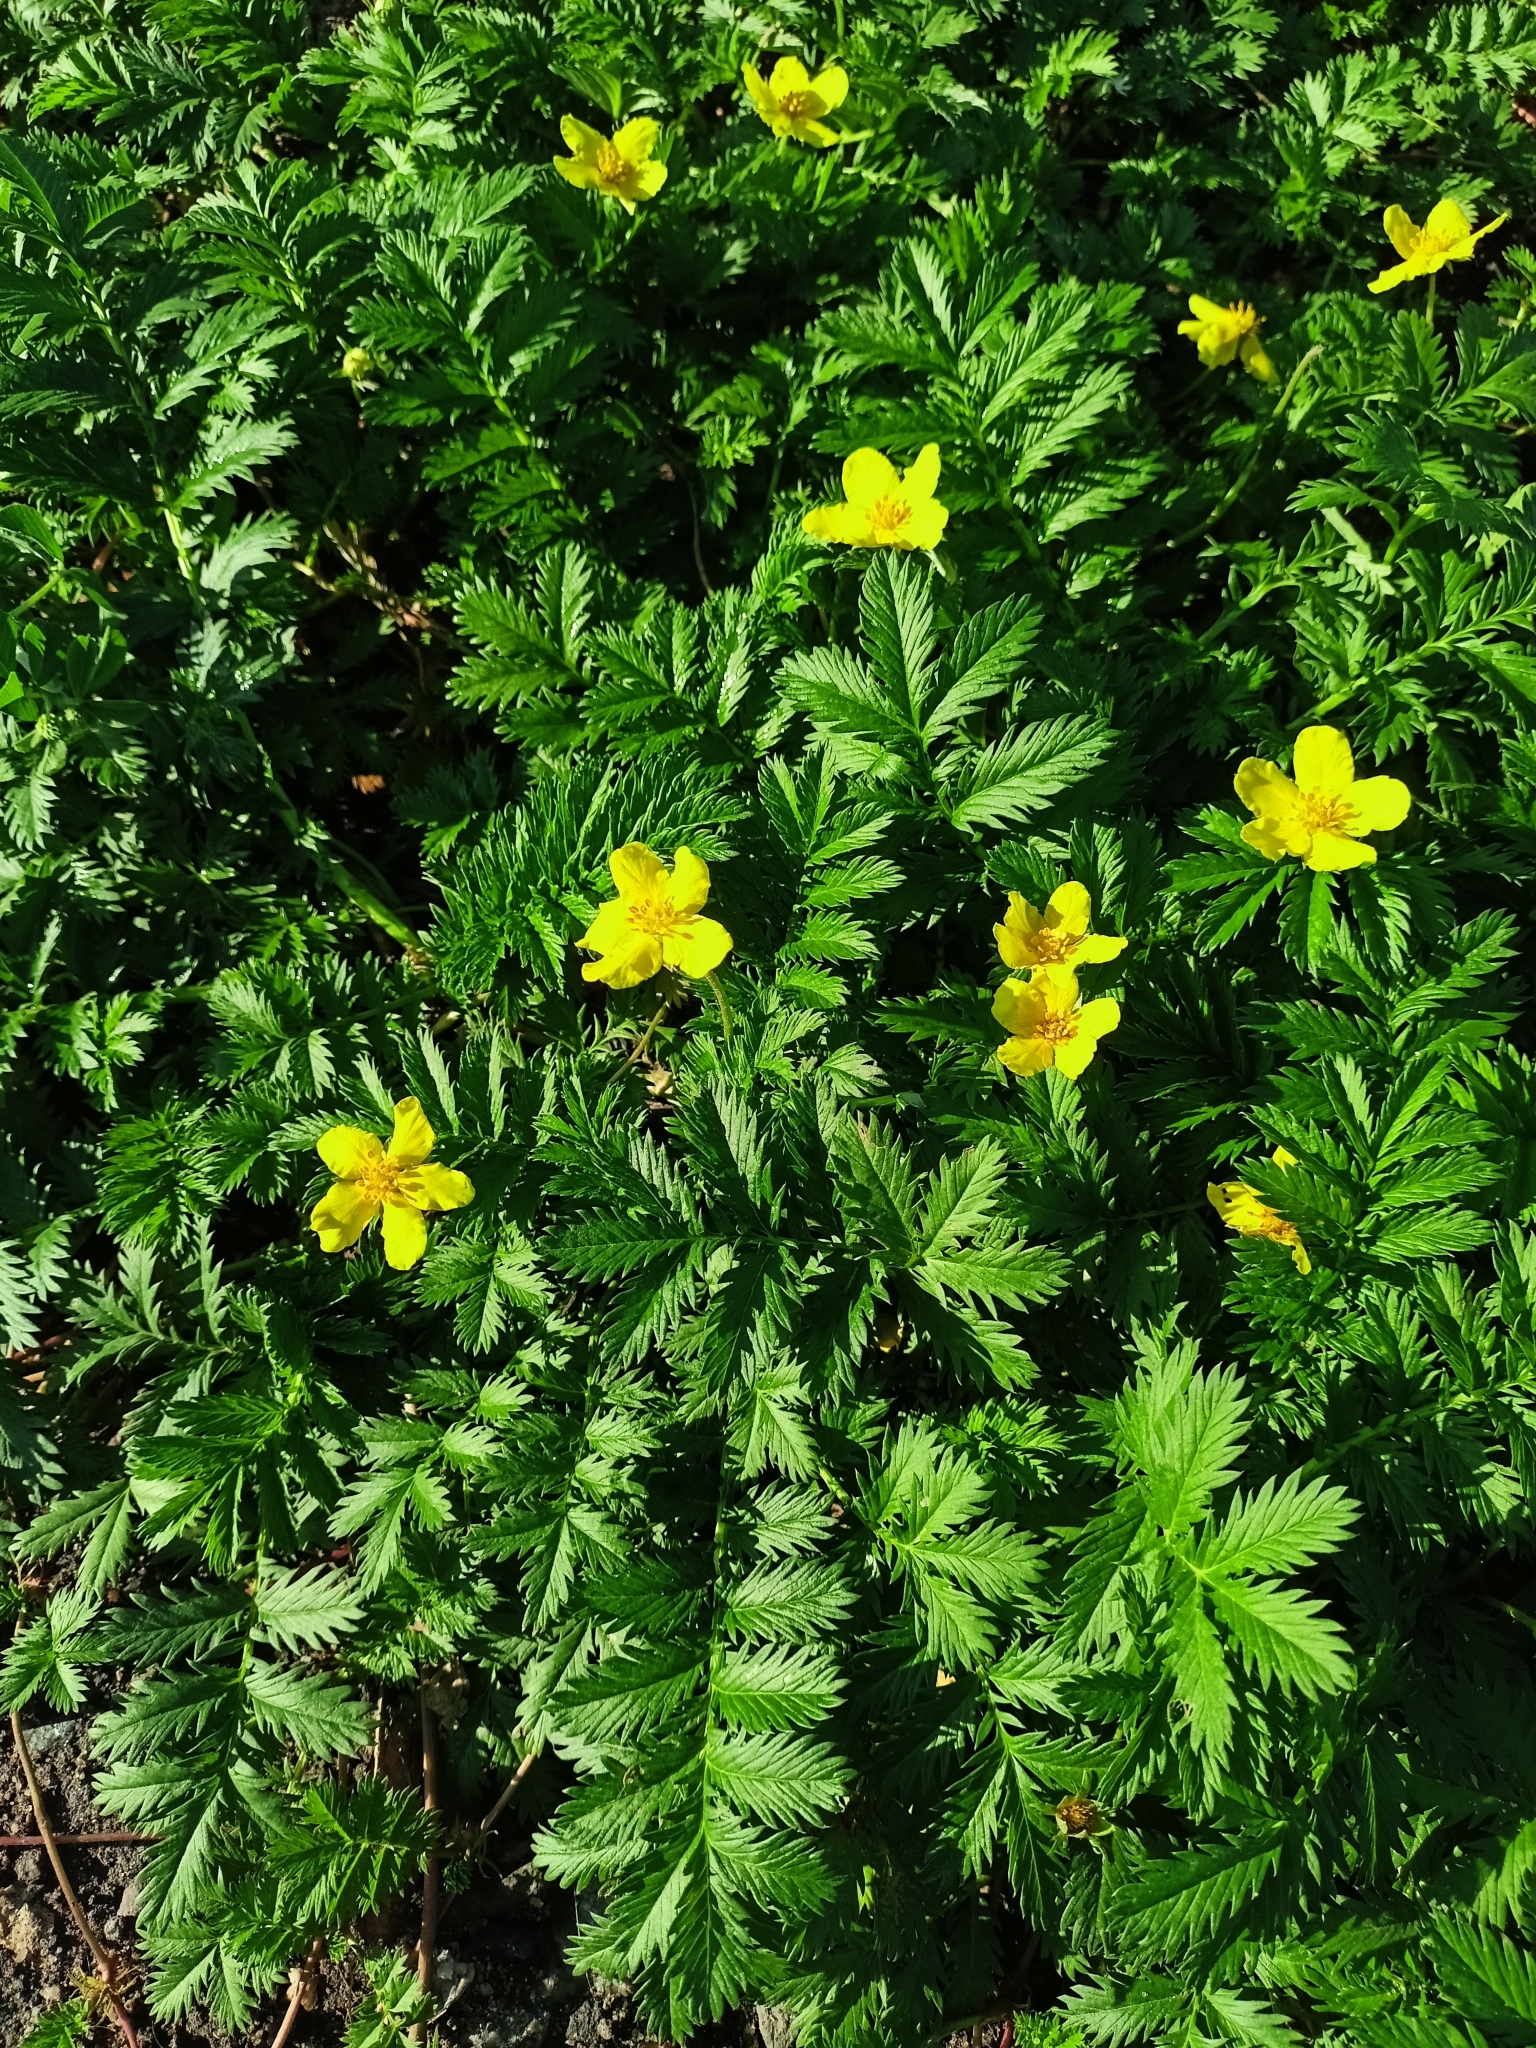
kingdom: Plantae
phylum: Tracheophyta
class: Magnoliopsida
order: Rosales
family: Rosaceae
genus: Argentina
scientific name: Argentina anserina
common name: Common silverweed
